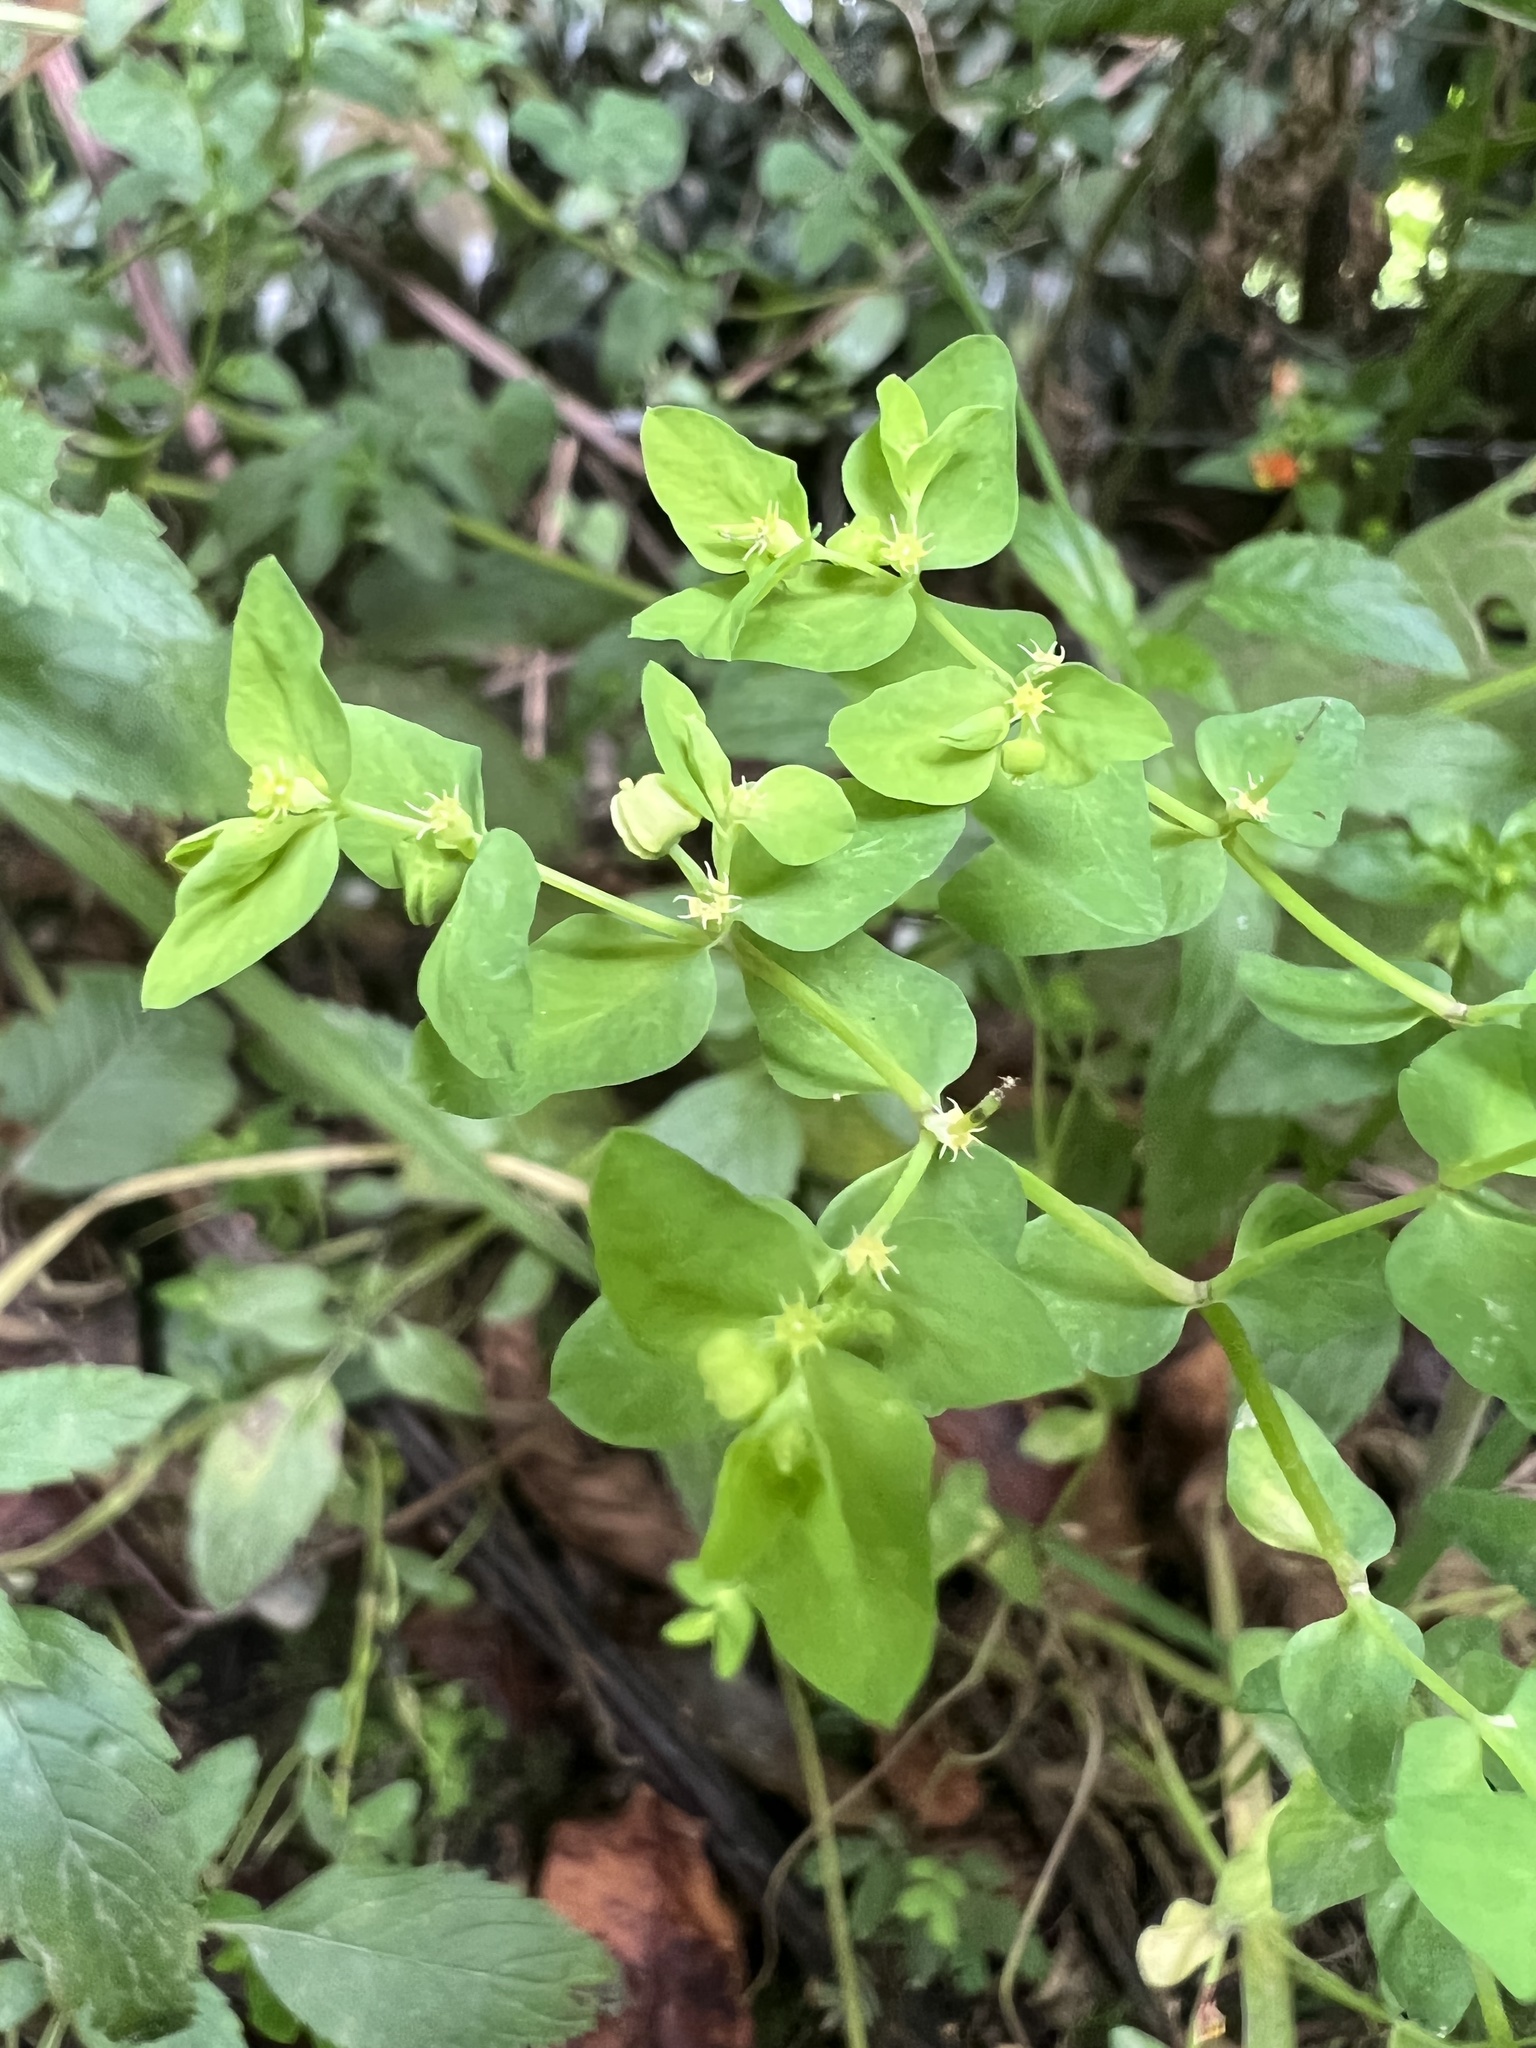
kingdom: Plantae
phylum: Tracheophyta
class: Magnoliopsida
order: Malpighiales
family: Euphorbiaceae
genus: Euphorbia
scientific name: Euphorbia peplus
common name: Petty spurge
